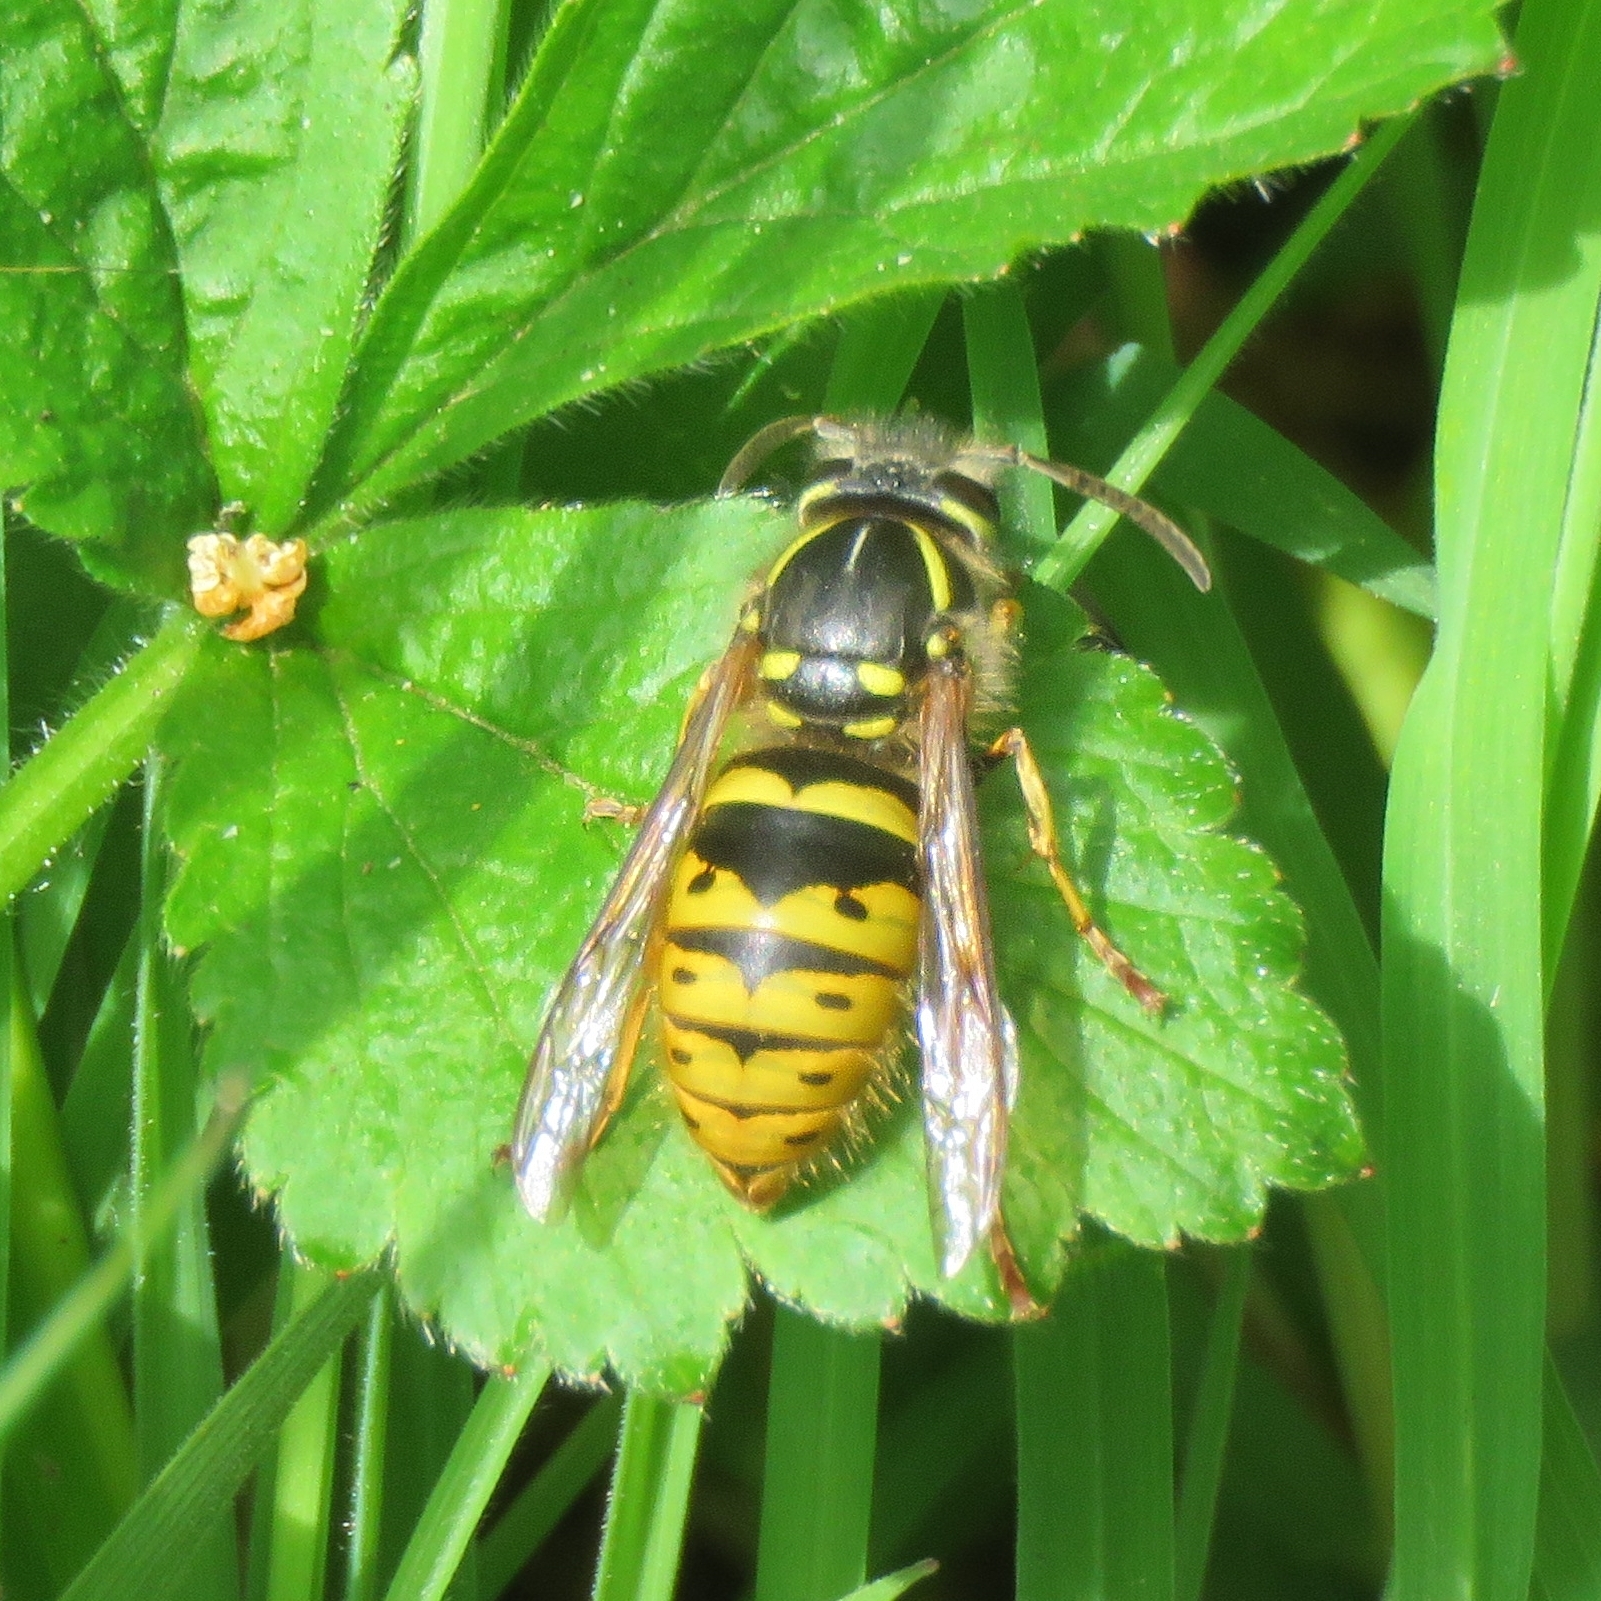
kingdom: Animalia
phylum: Arthropoda
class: Insecta
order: Hymenoptera
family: Vespidae
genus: Vespula
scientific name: Vespula vulgaris
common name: Common wasp
